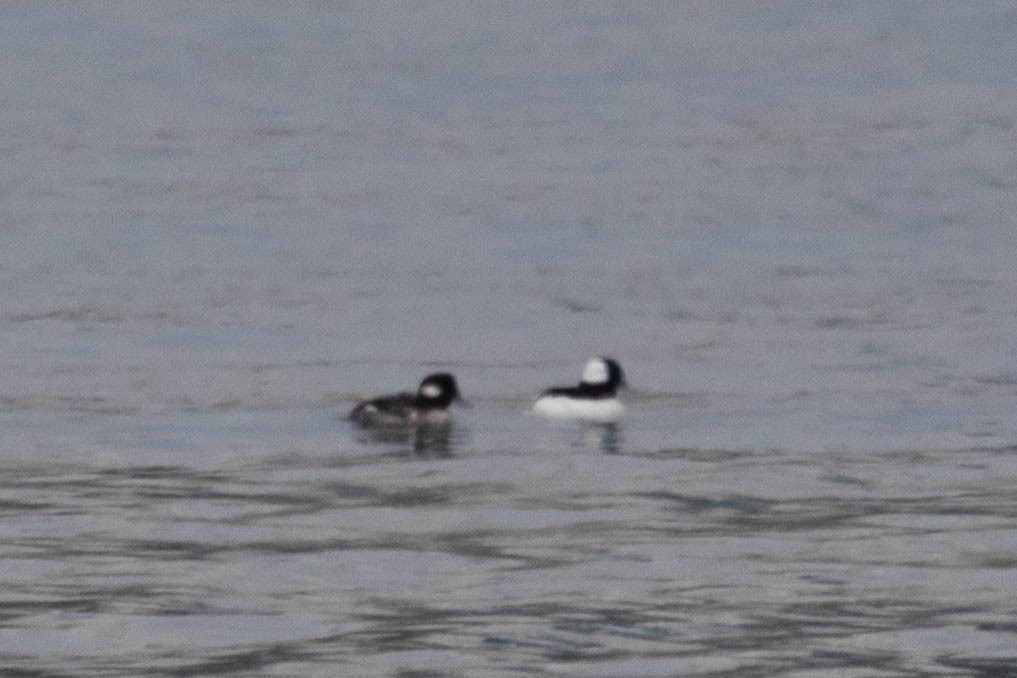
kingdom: Animalia
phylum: Chordata
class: Aves
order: Anseriformes
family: Anatidae
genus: Bucephala
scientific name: Bucephala albeola
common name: Bufflehead
